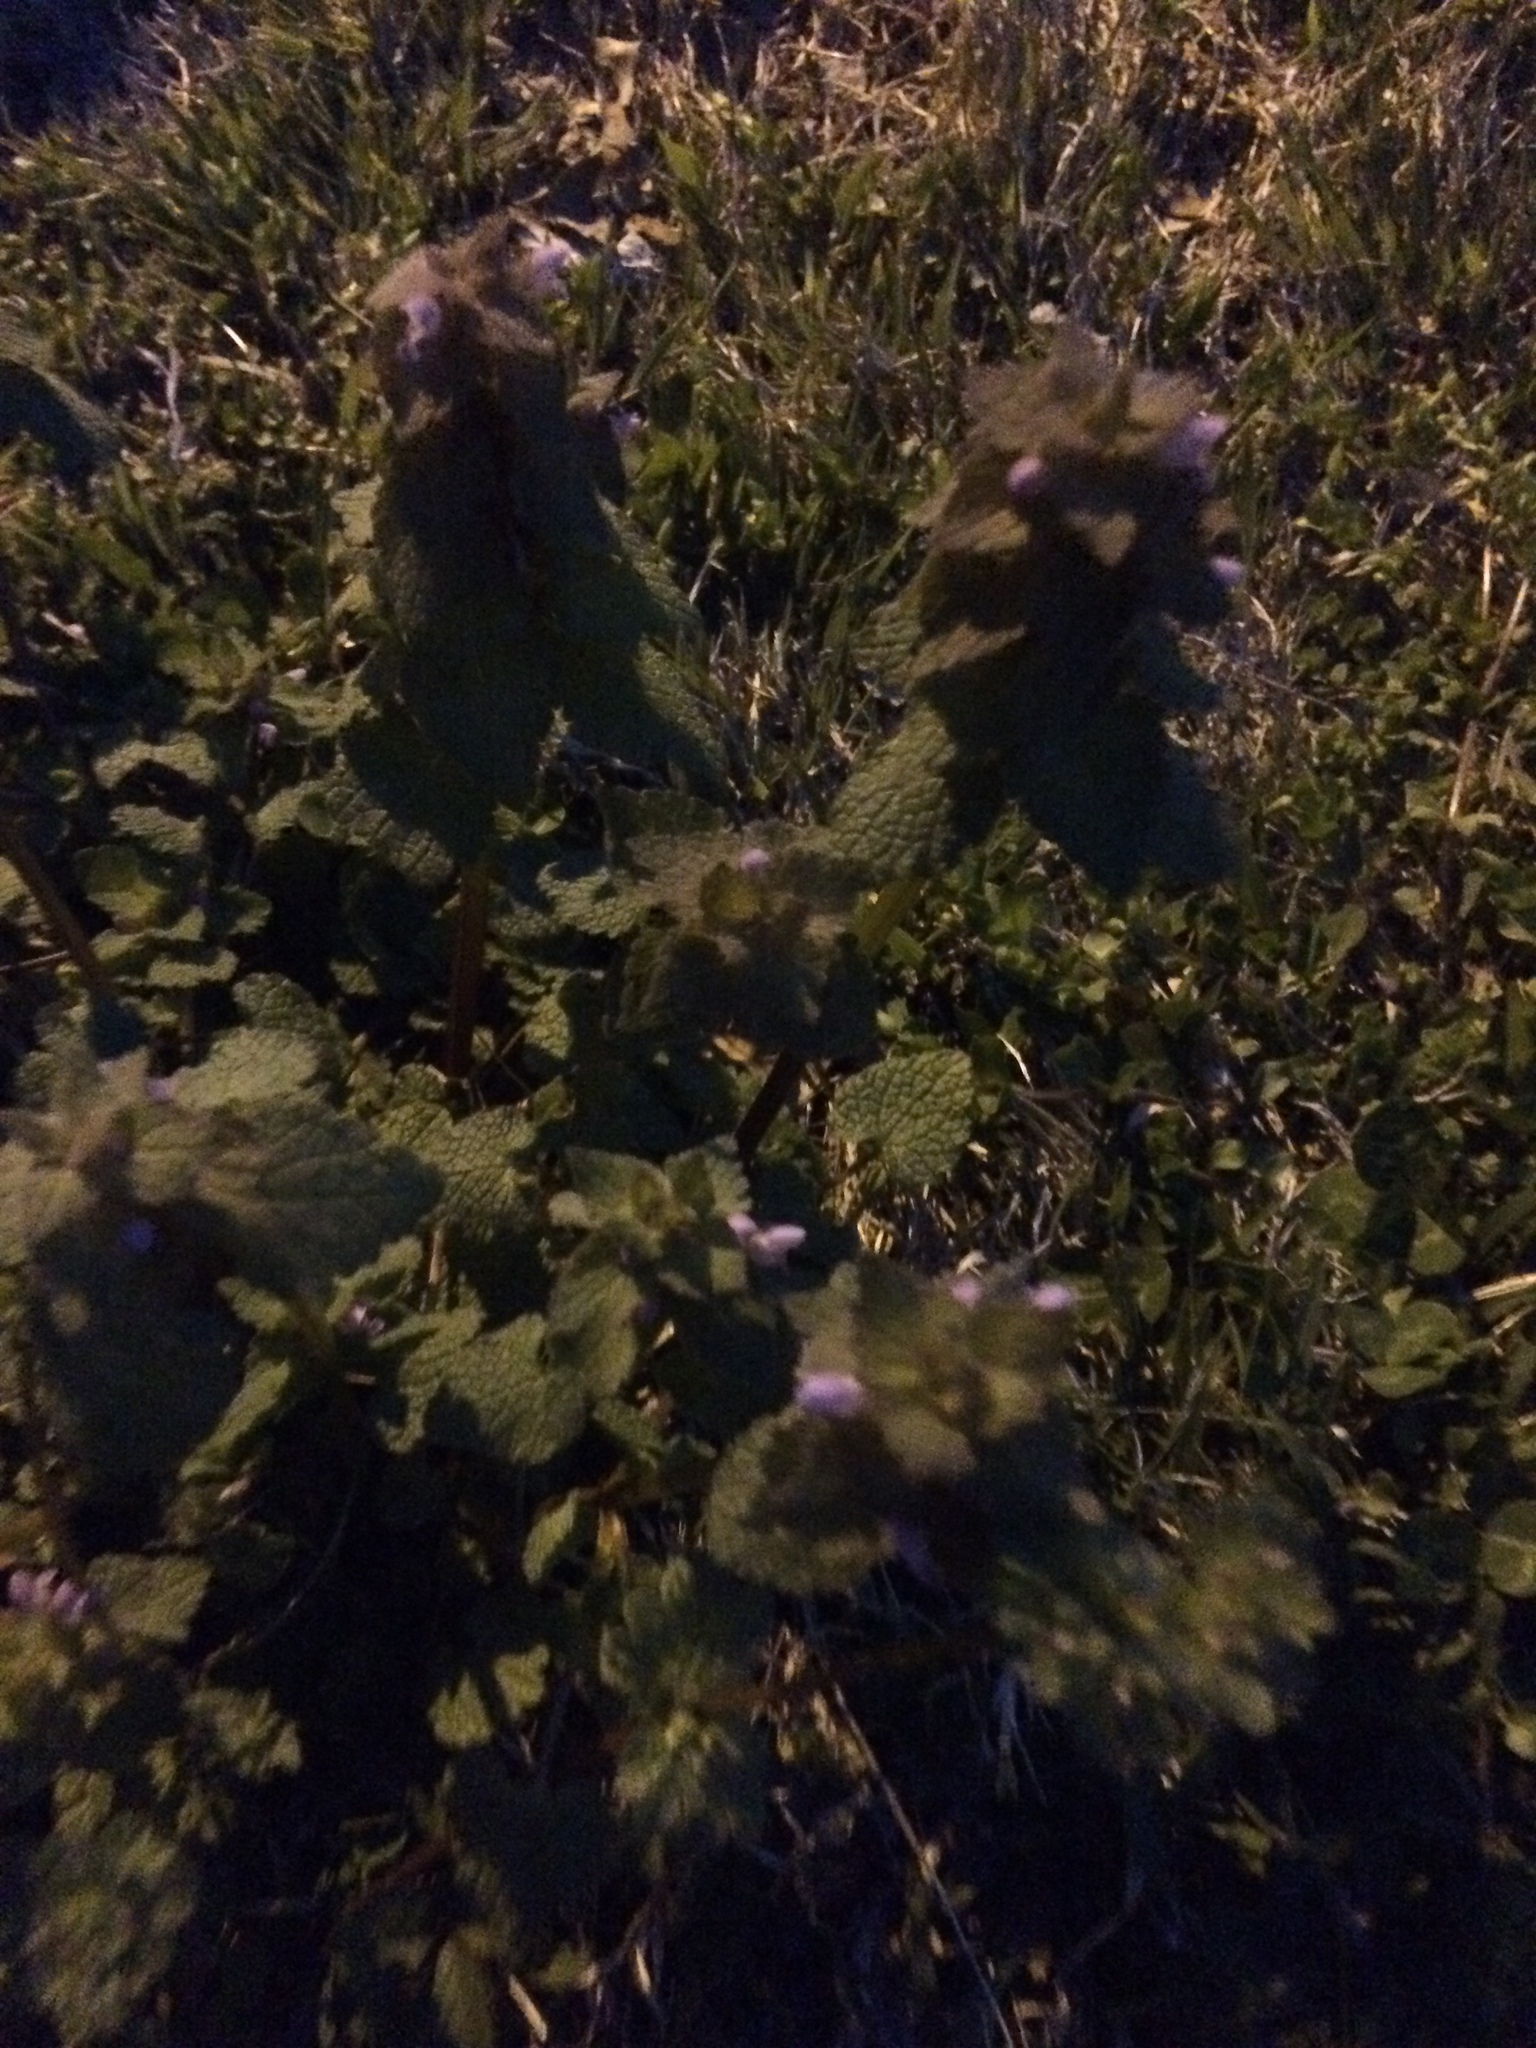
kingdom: Plantae
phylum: Tracheophyta
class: Magnoliopsida
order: Lamiales
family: Lamiaceae
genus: Lamium
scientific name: Lamium purpureum
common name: Red dead-nettle
